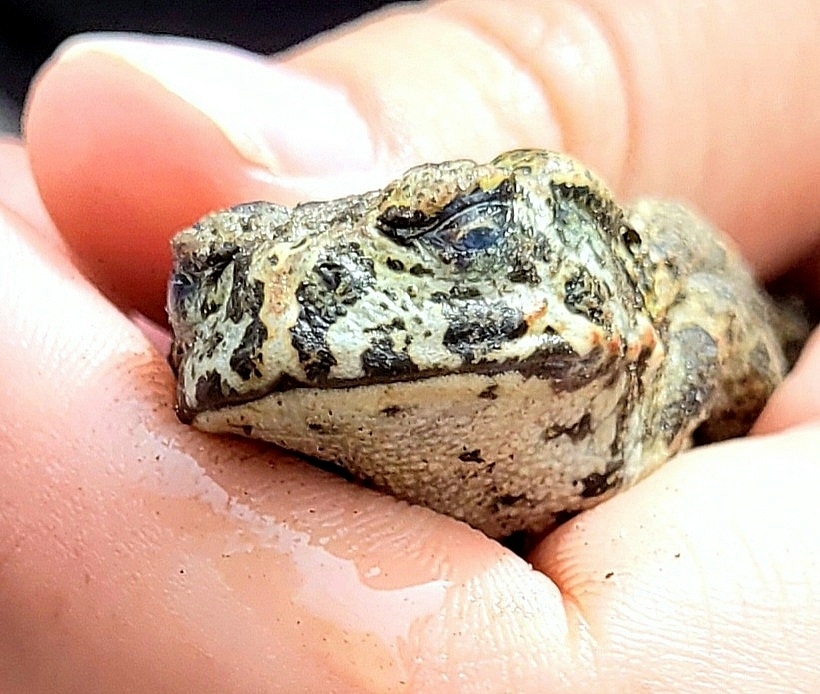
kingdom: Animalia
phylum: Chordata
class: Amphibia
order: Anura
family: Bufonidae
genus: Anaxyrus
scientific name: Anaxyrus boreas
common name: Western toad
